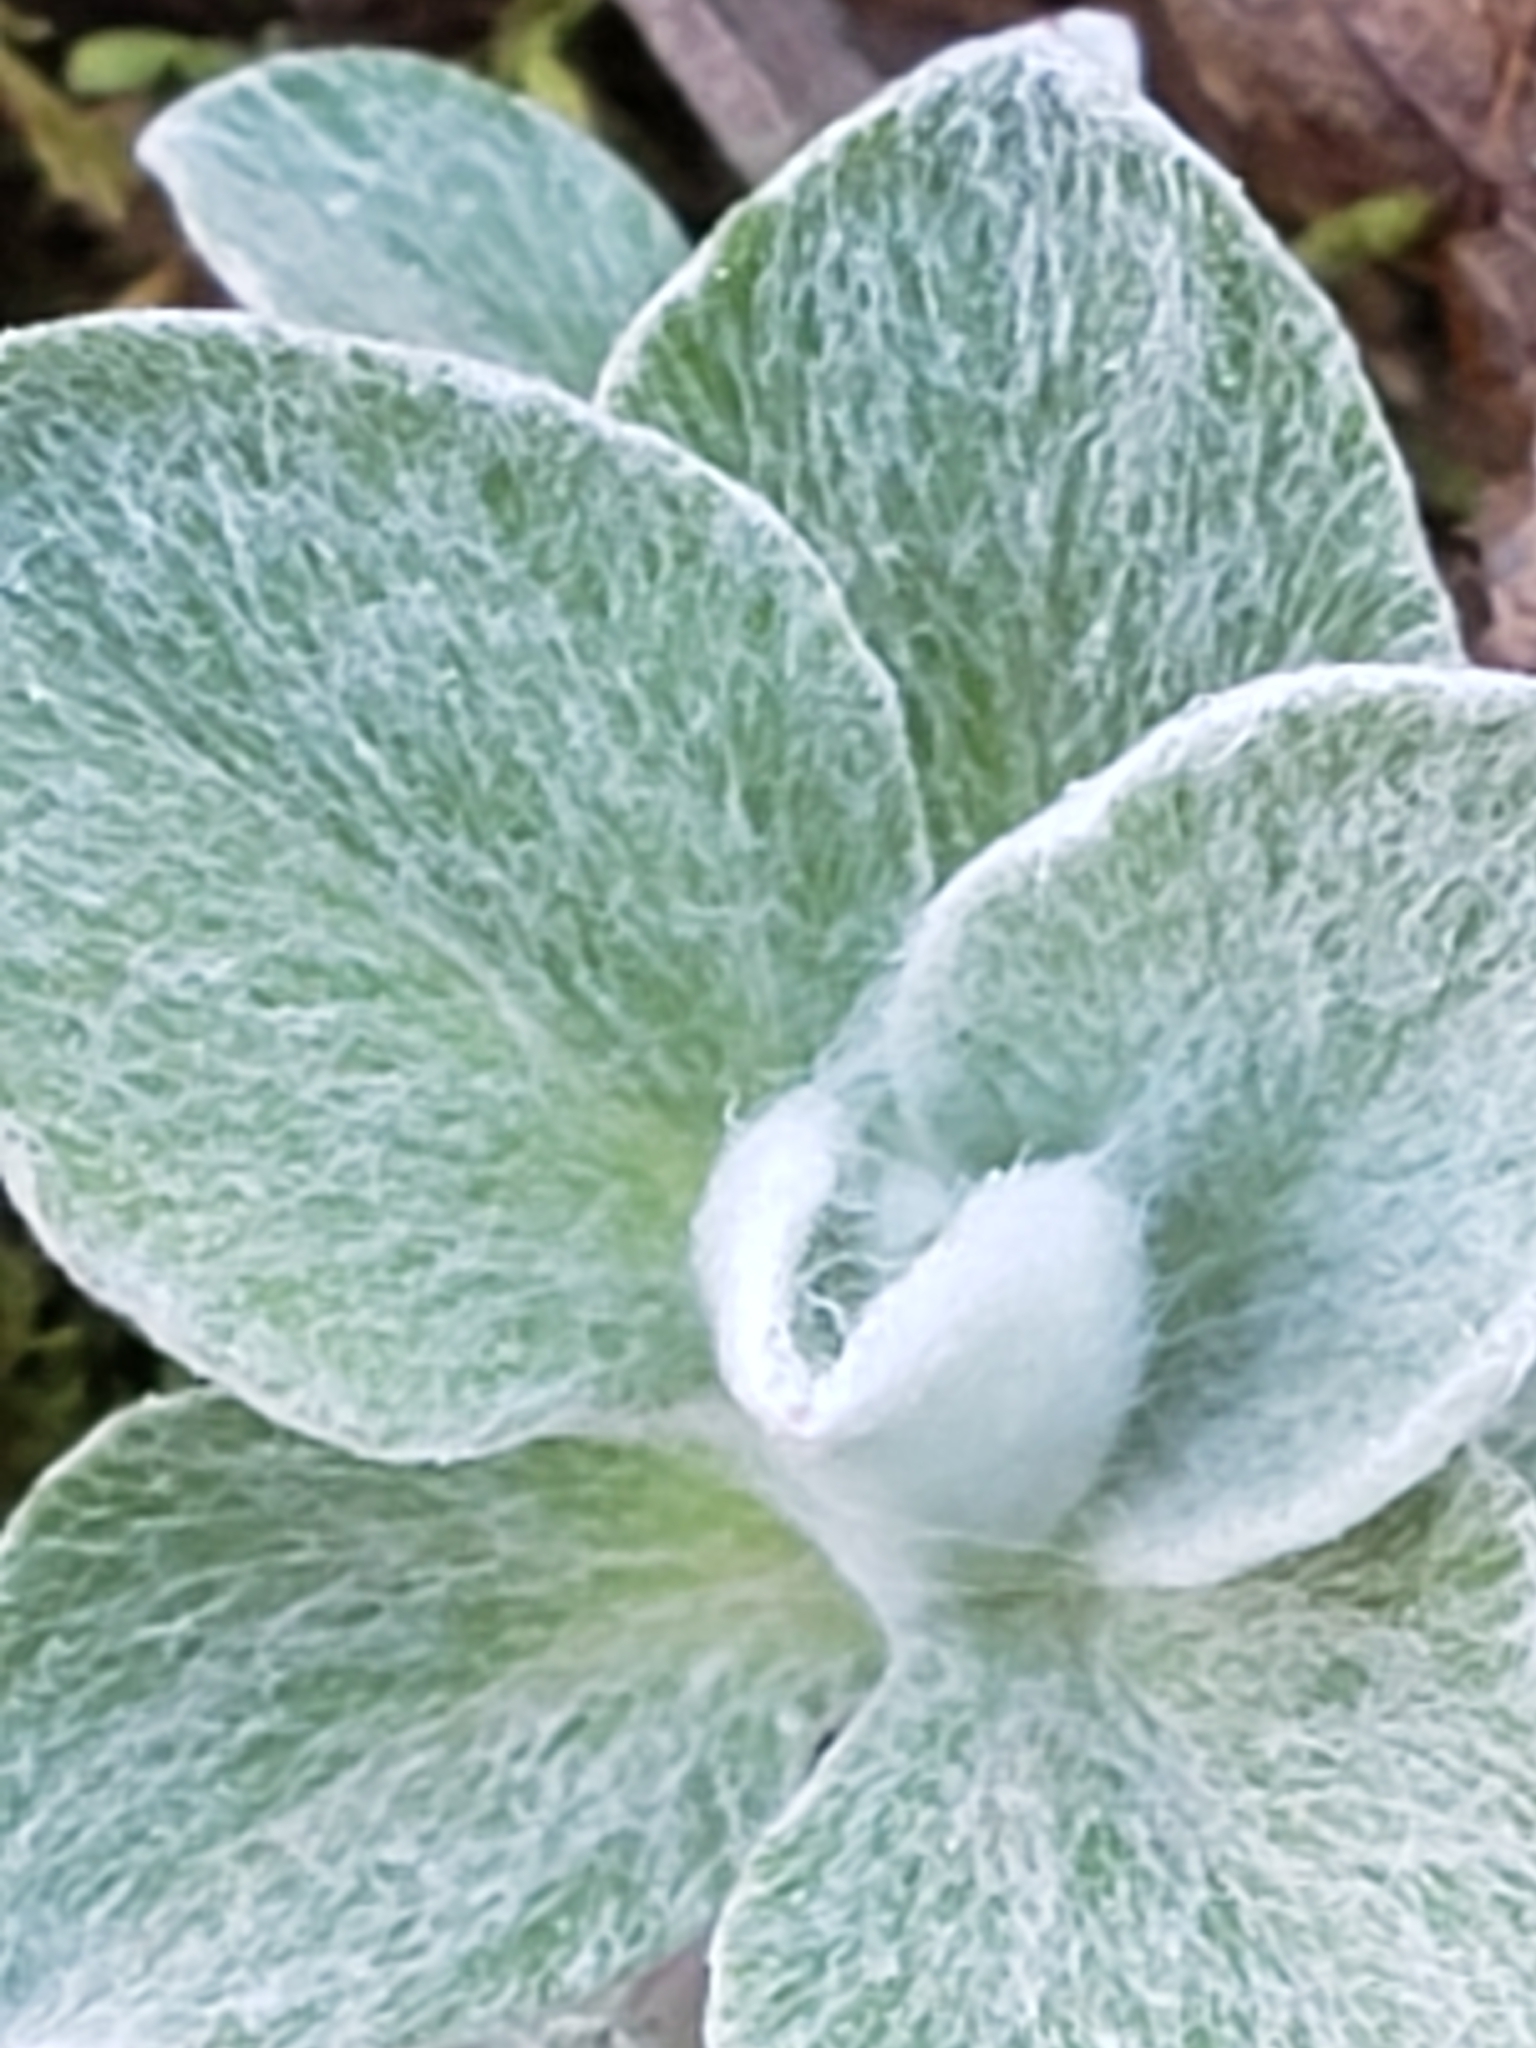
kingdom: Plantae
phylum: Tracheophyta
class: Magnoliopsida
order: Asterales
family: Asteraceae
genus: Antennaria
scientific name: Antennaria plantaginifolia
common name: Plantain-leaved pussytoes
